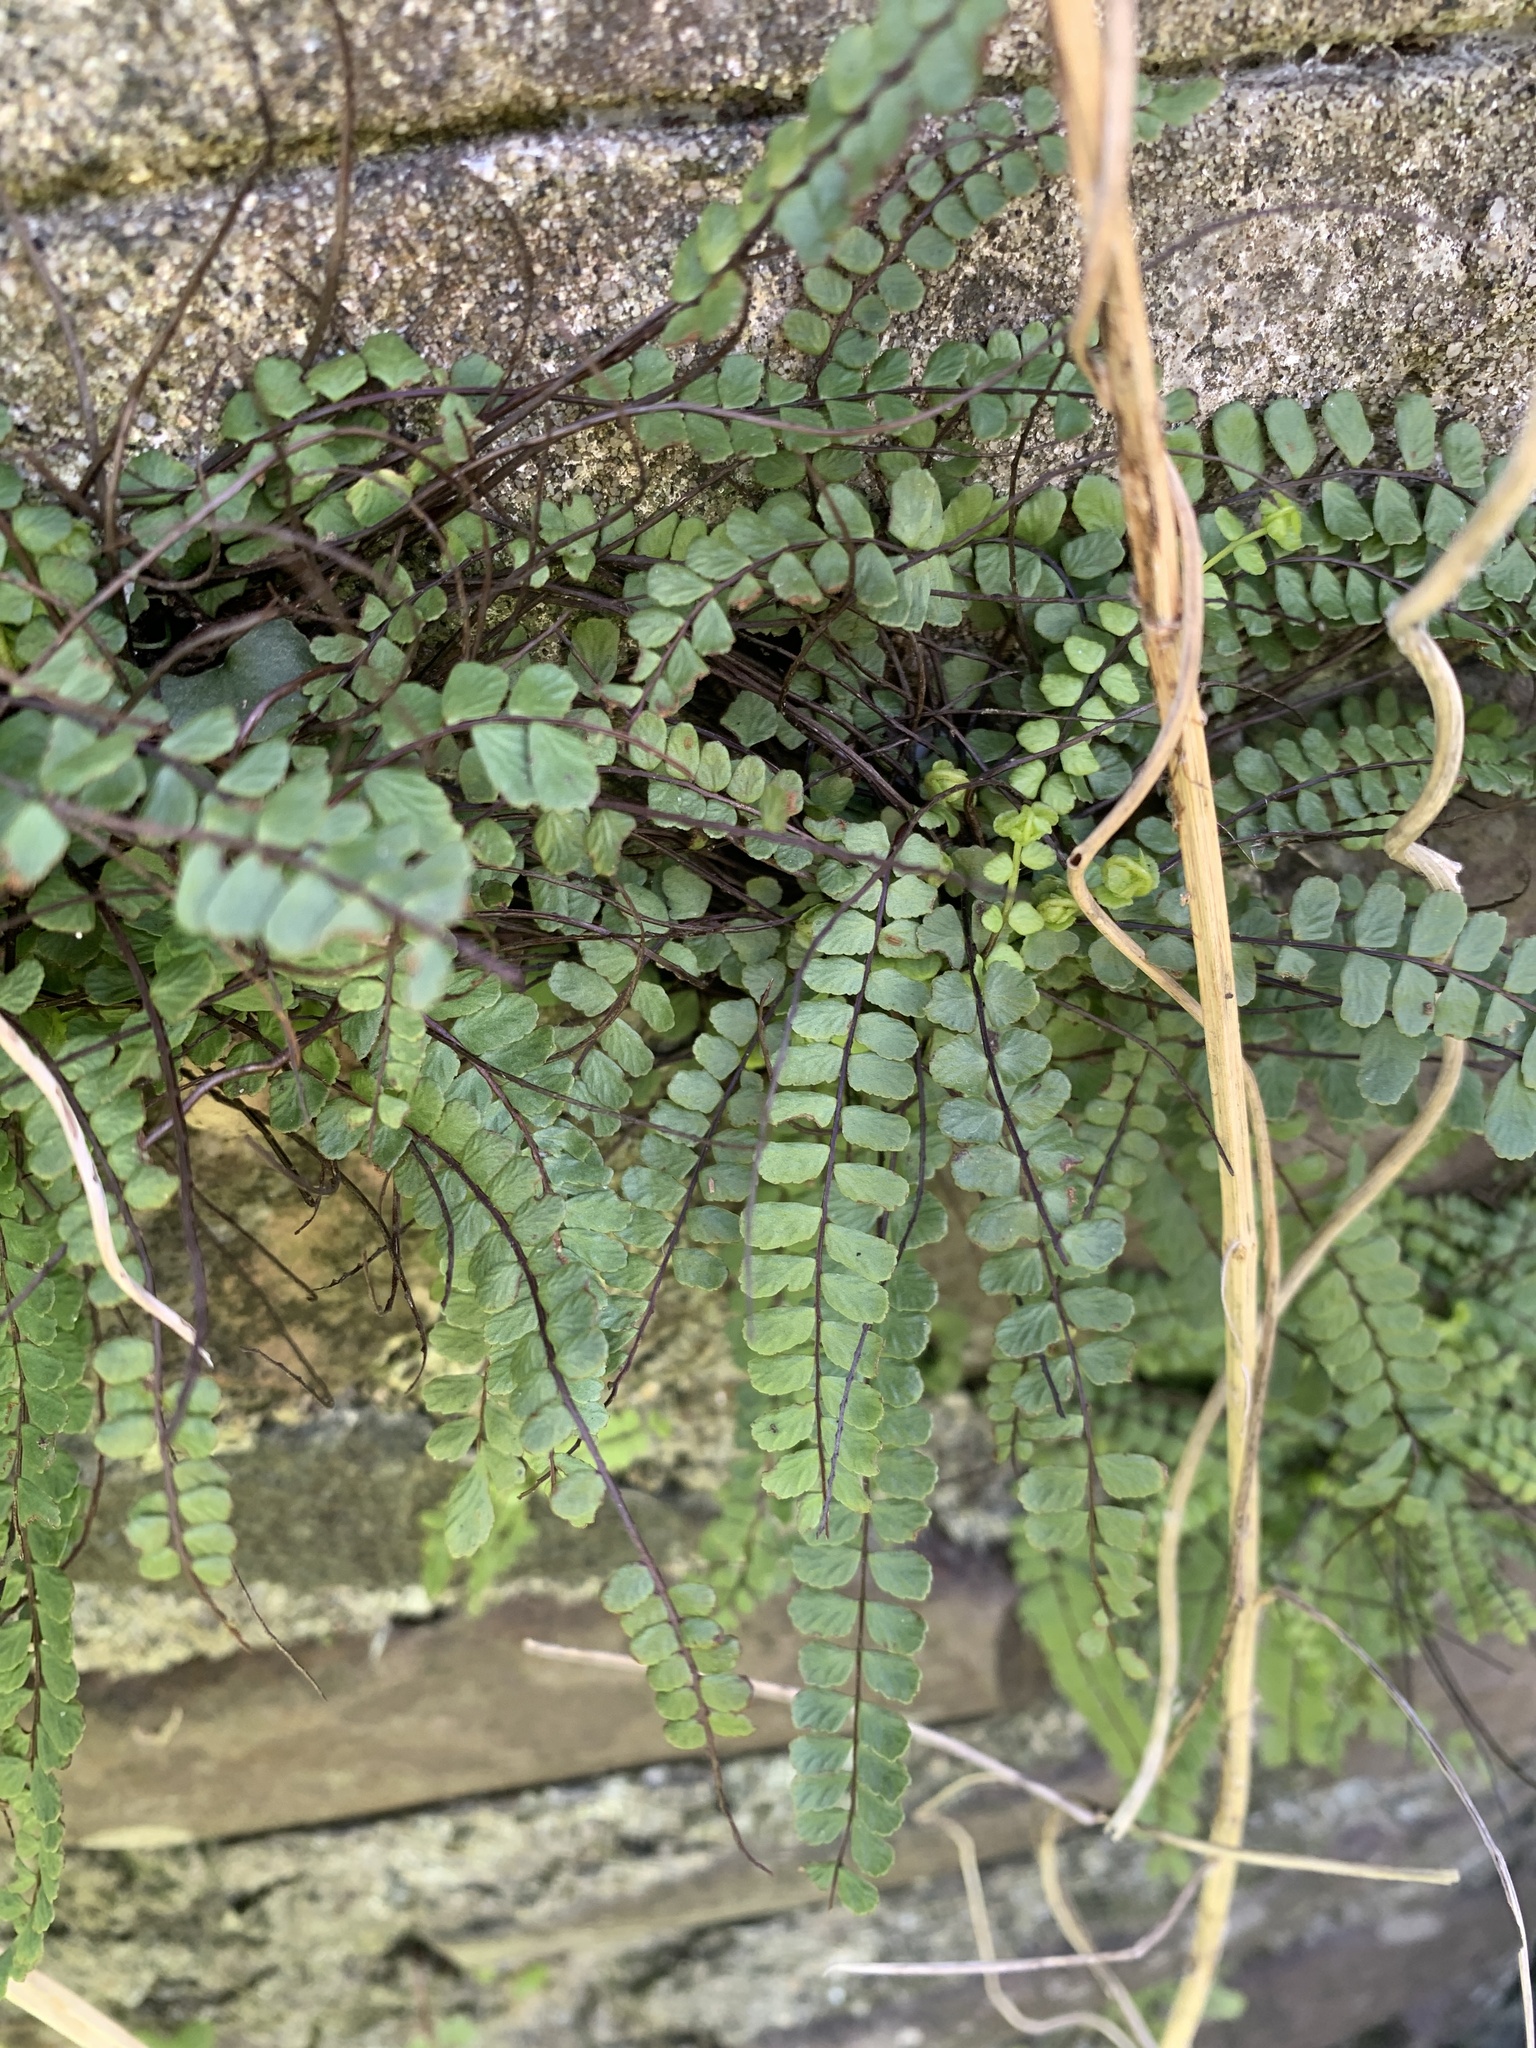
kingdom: Plantae
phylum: Tracheophyta
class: Polypodiopsida
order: Polypodiales
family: Aspleniaceae
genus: Asplenium
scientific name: Asplenium trichomanes
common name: Maidenhair spleenwort
